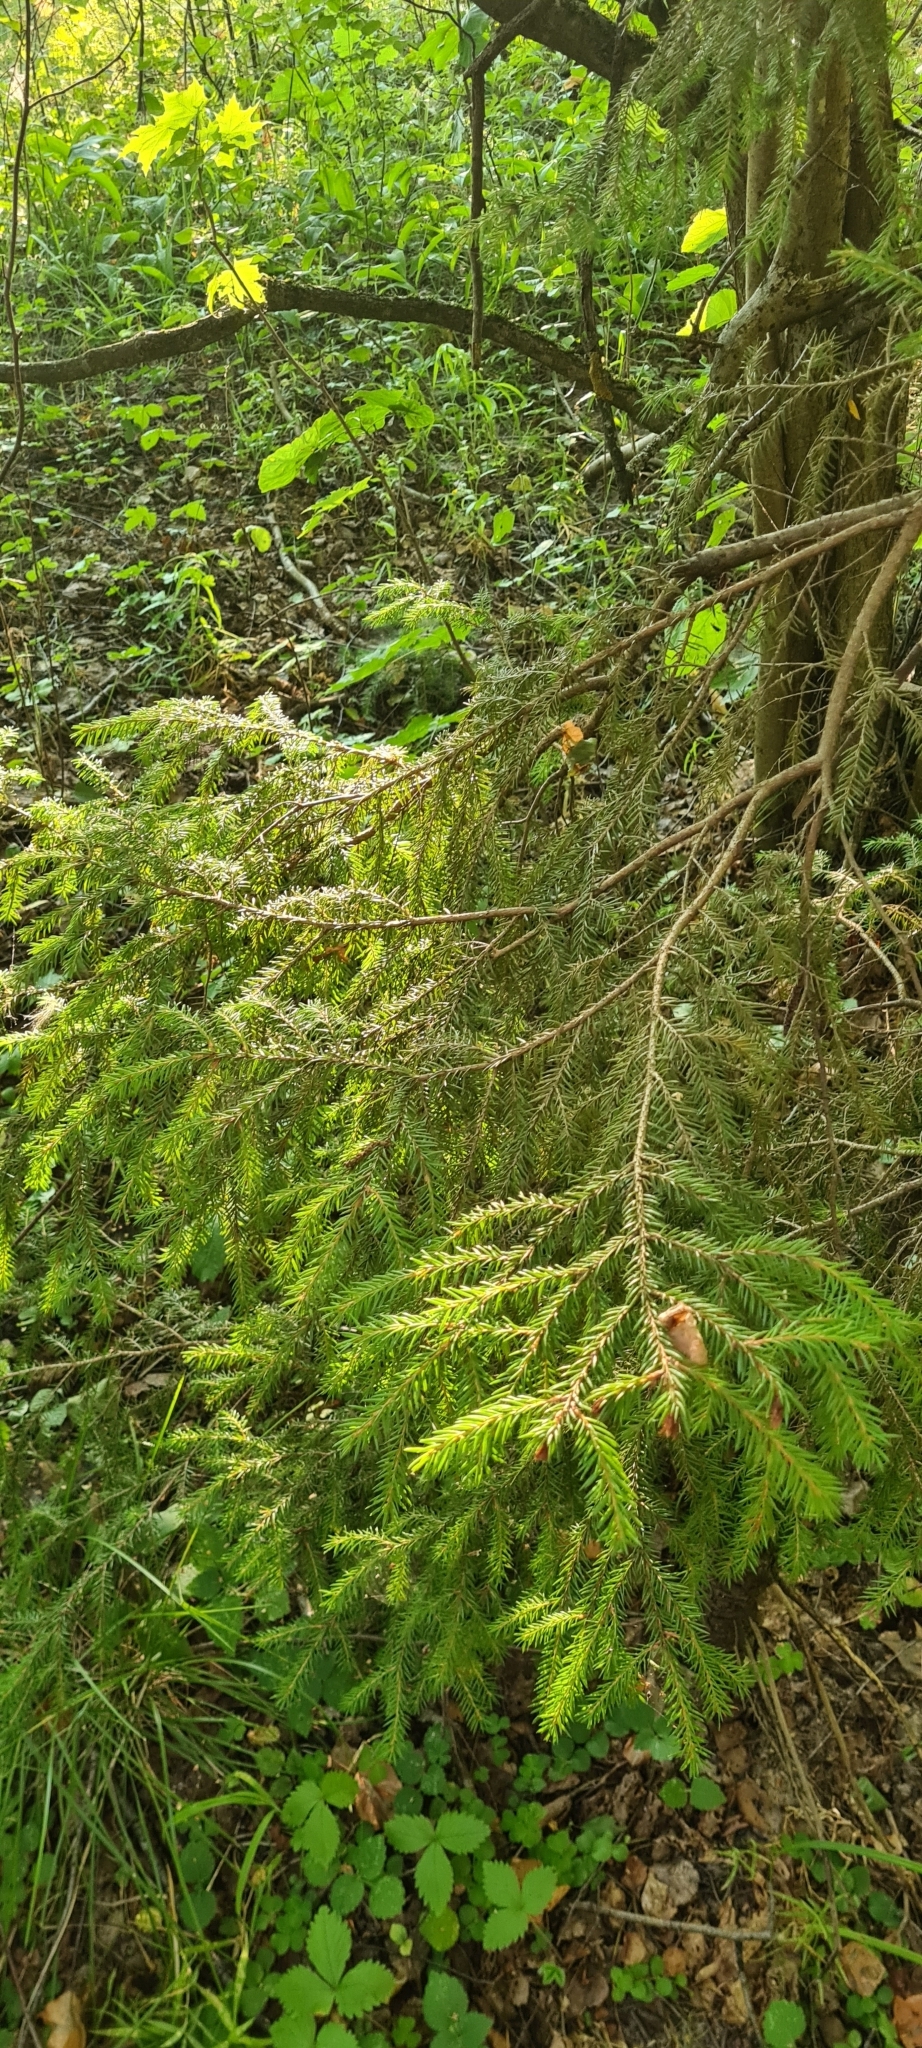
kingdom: Plantae
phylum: Tracheophyta
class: Pinopsida
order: Pinales
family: Pinaceae
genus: Picea
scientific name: Picea abies
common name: Norway spruce
